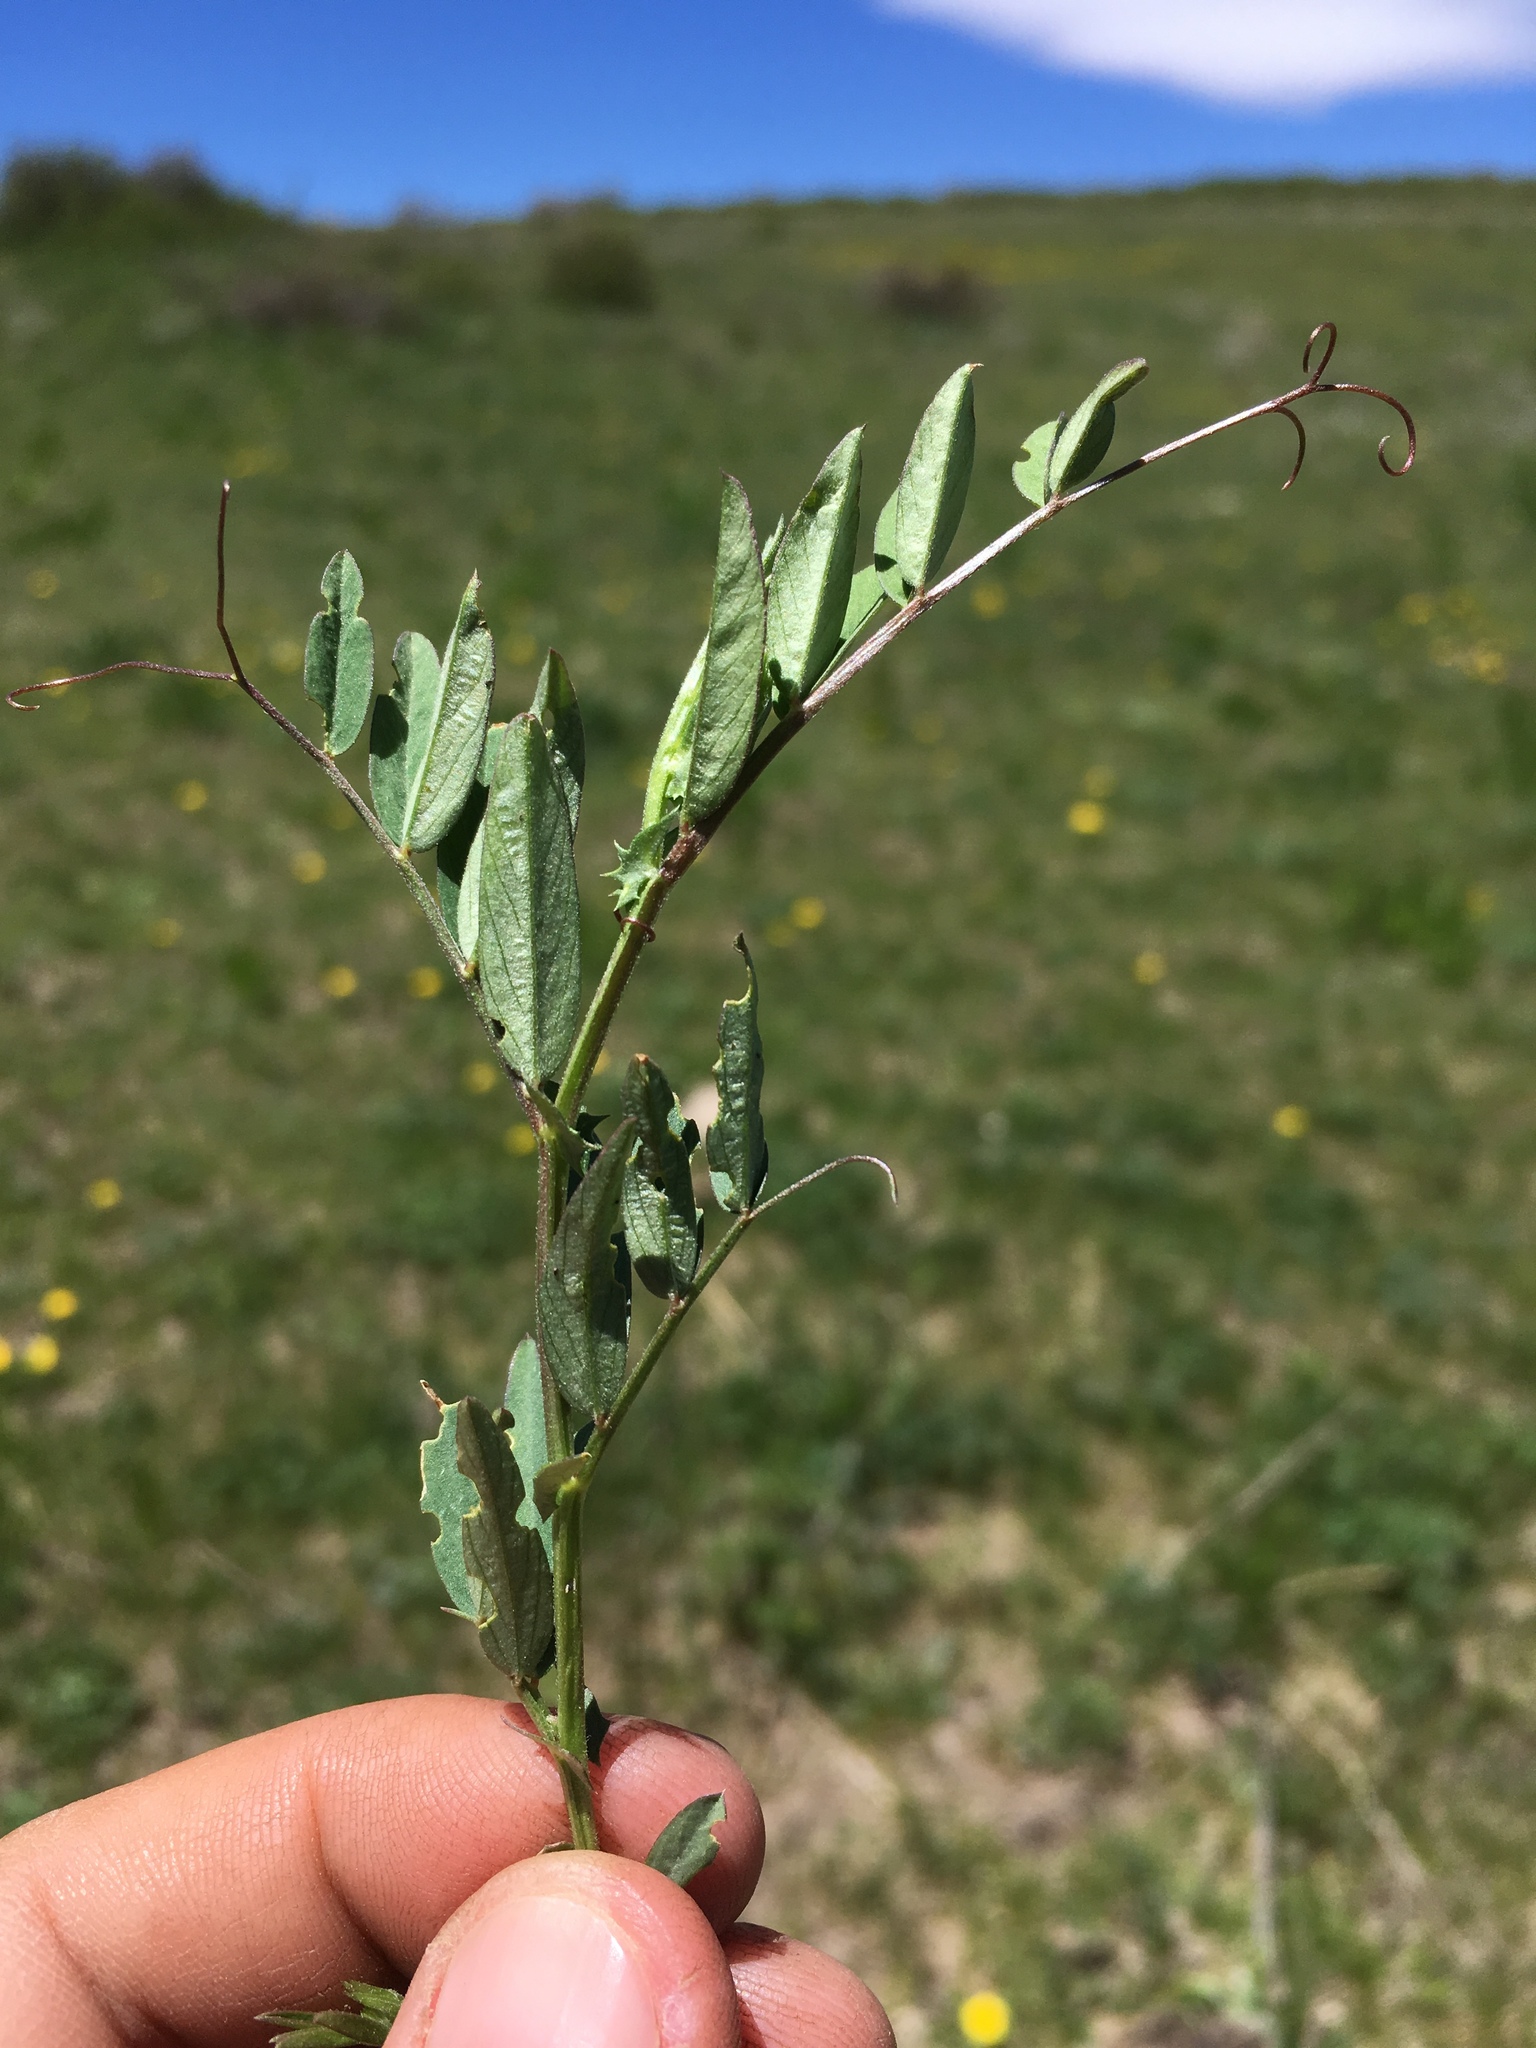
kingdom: Plantae
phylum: Tracheophyta
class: Magnoliopsida
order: Fabales
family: Fabaceae
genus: Vicia
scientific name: Vicia americana
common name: American vetch
